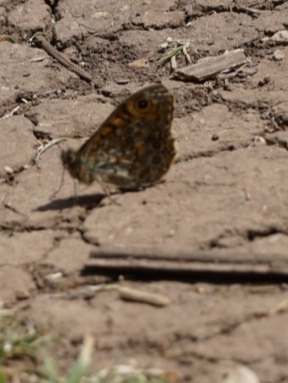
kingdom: Animalia
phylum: Arthropoda
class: Insecta
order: Lepidoptera
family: Nymphalidae
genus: Pararge
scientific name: Pararge Lasiommata megera
